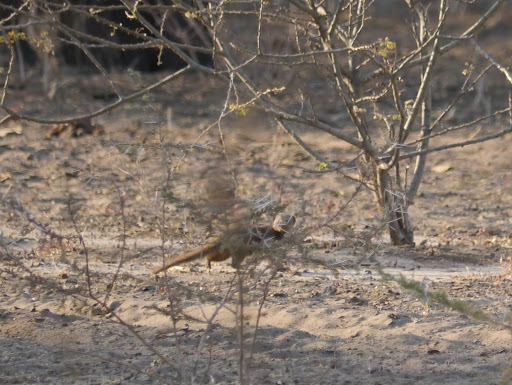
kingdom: Animalia
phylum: Chordata
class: Mammalia
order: Carnivora
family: Herpestidae
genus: Helogale
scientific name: Helogale parvula
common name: Common dwarf mongoose
